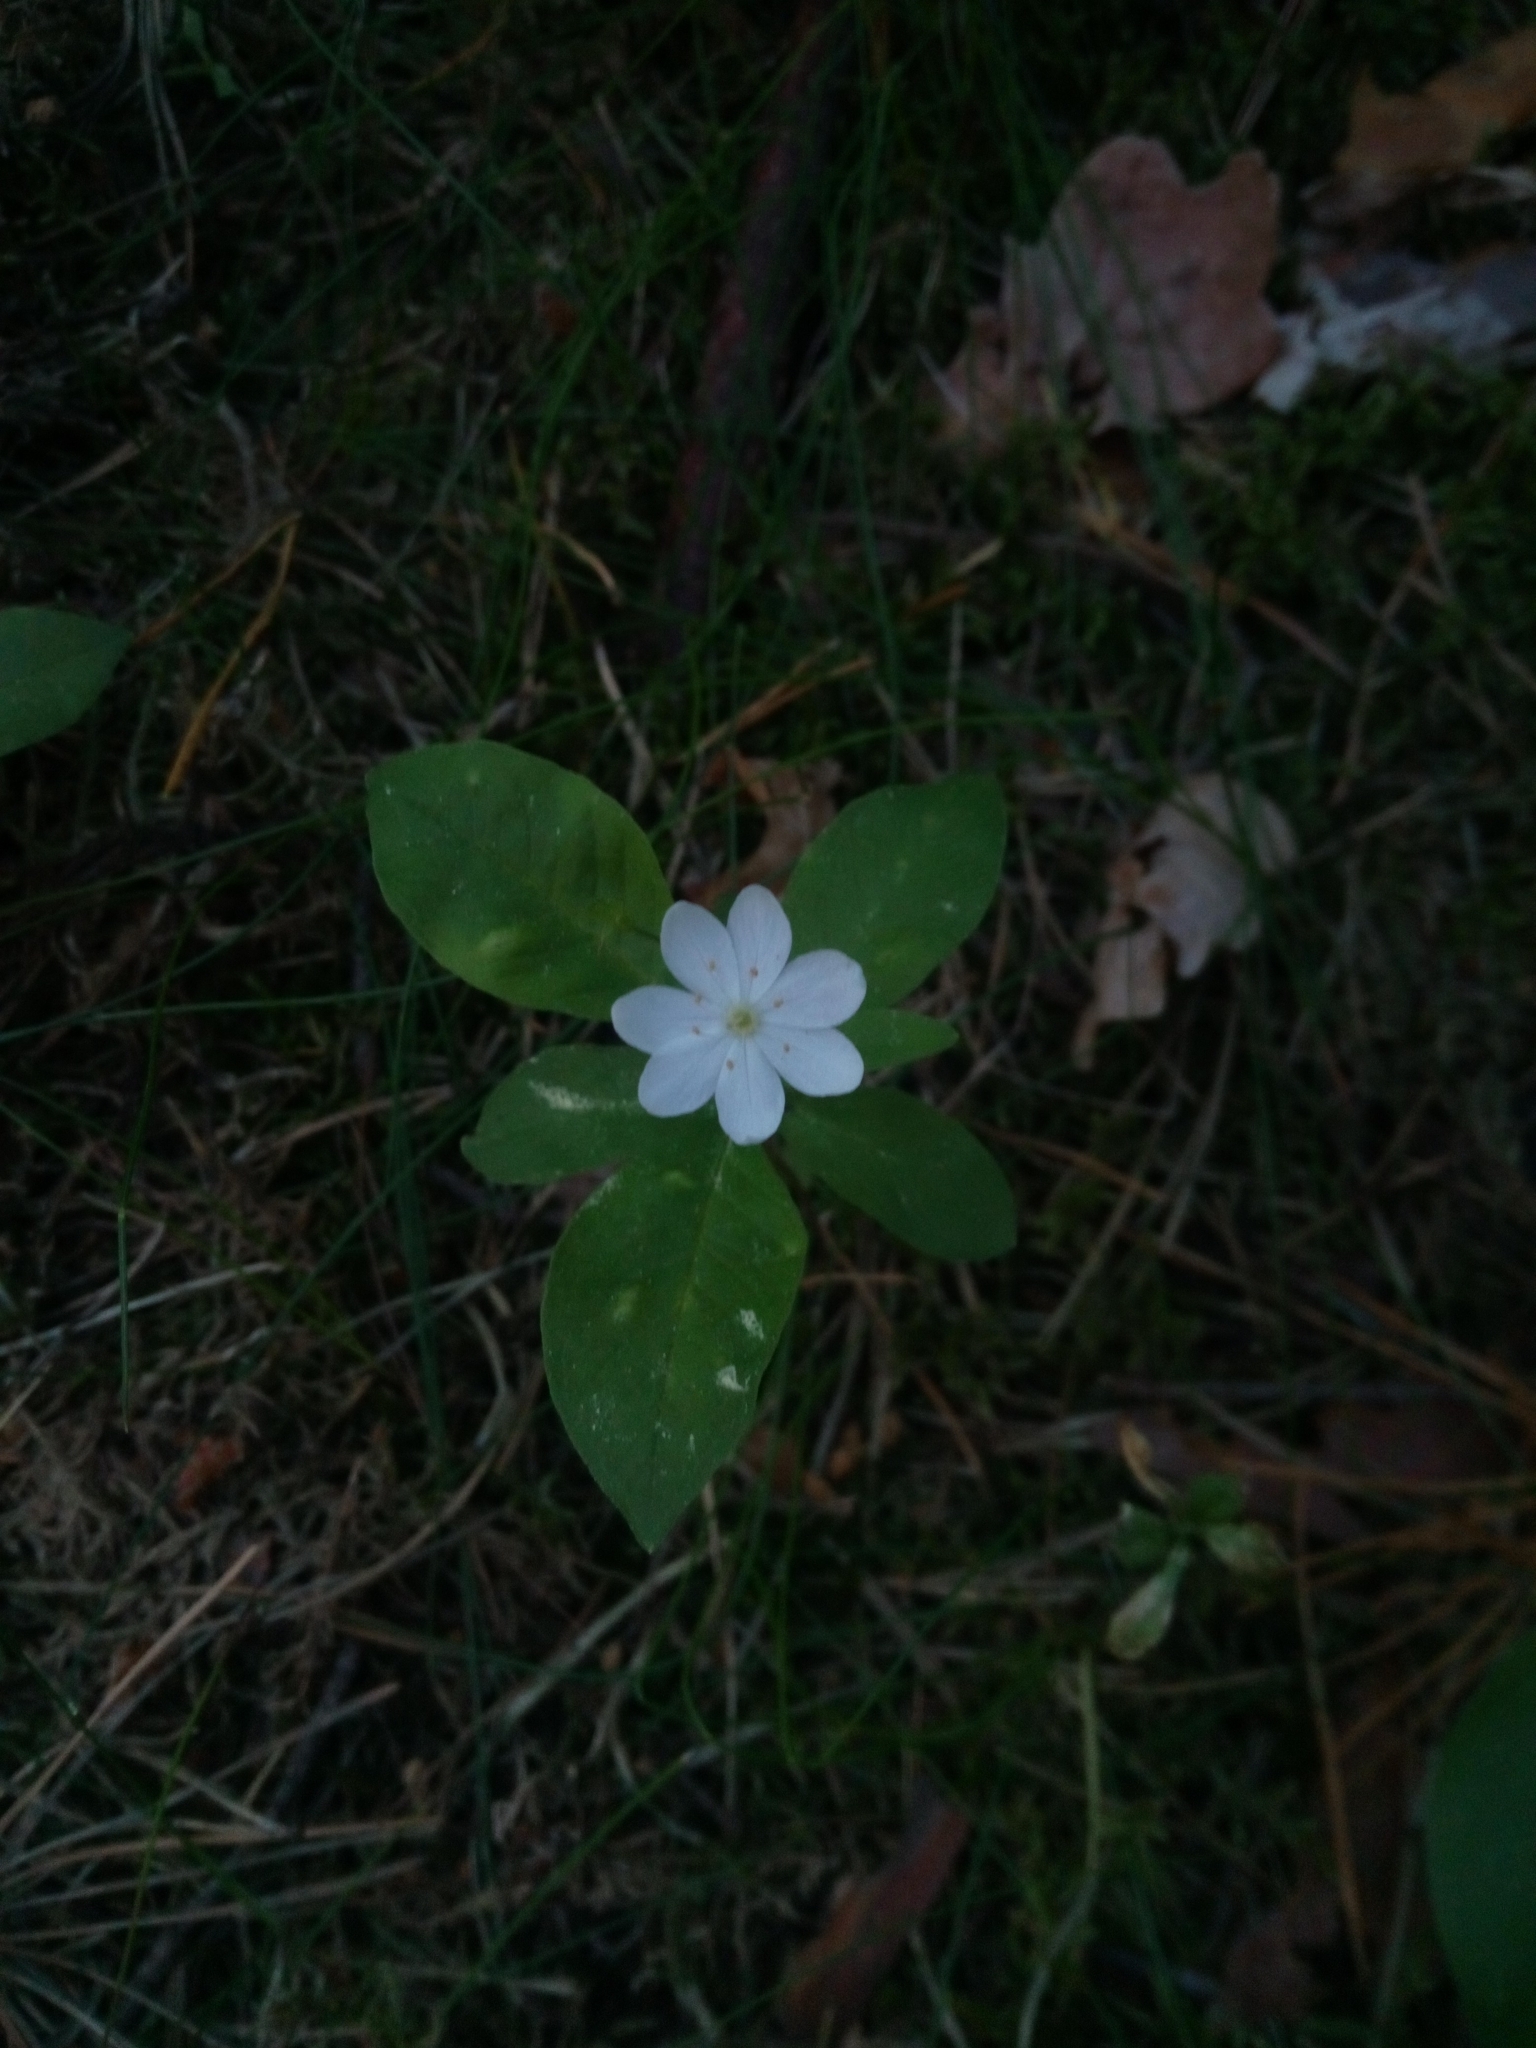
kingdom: Plantae
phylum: Tracheophyta
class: Magnoliopsida
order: Ericales
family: Primulaceae
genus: Lysimachia
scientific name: Lysimachia europaea
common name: Arctic starflower
